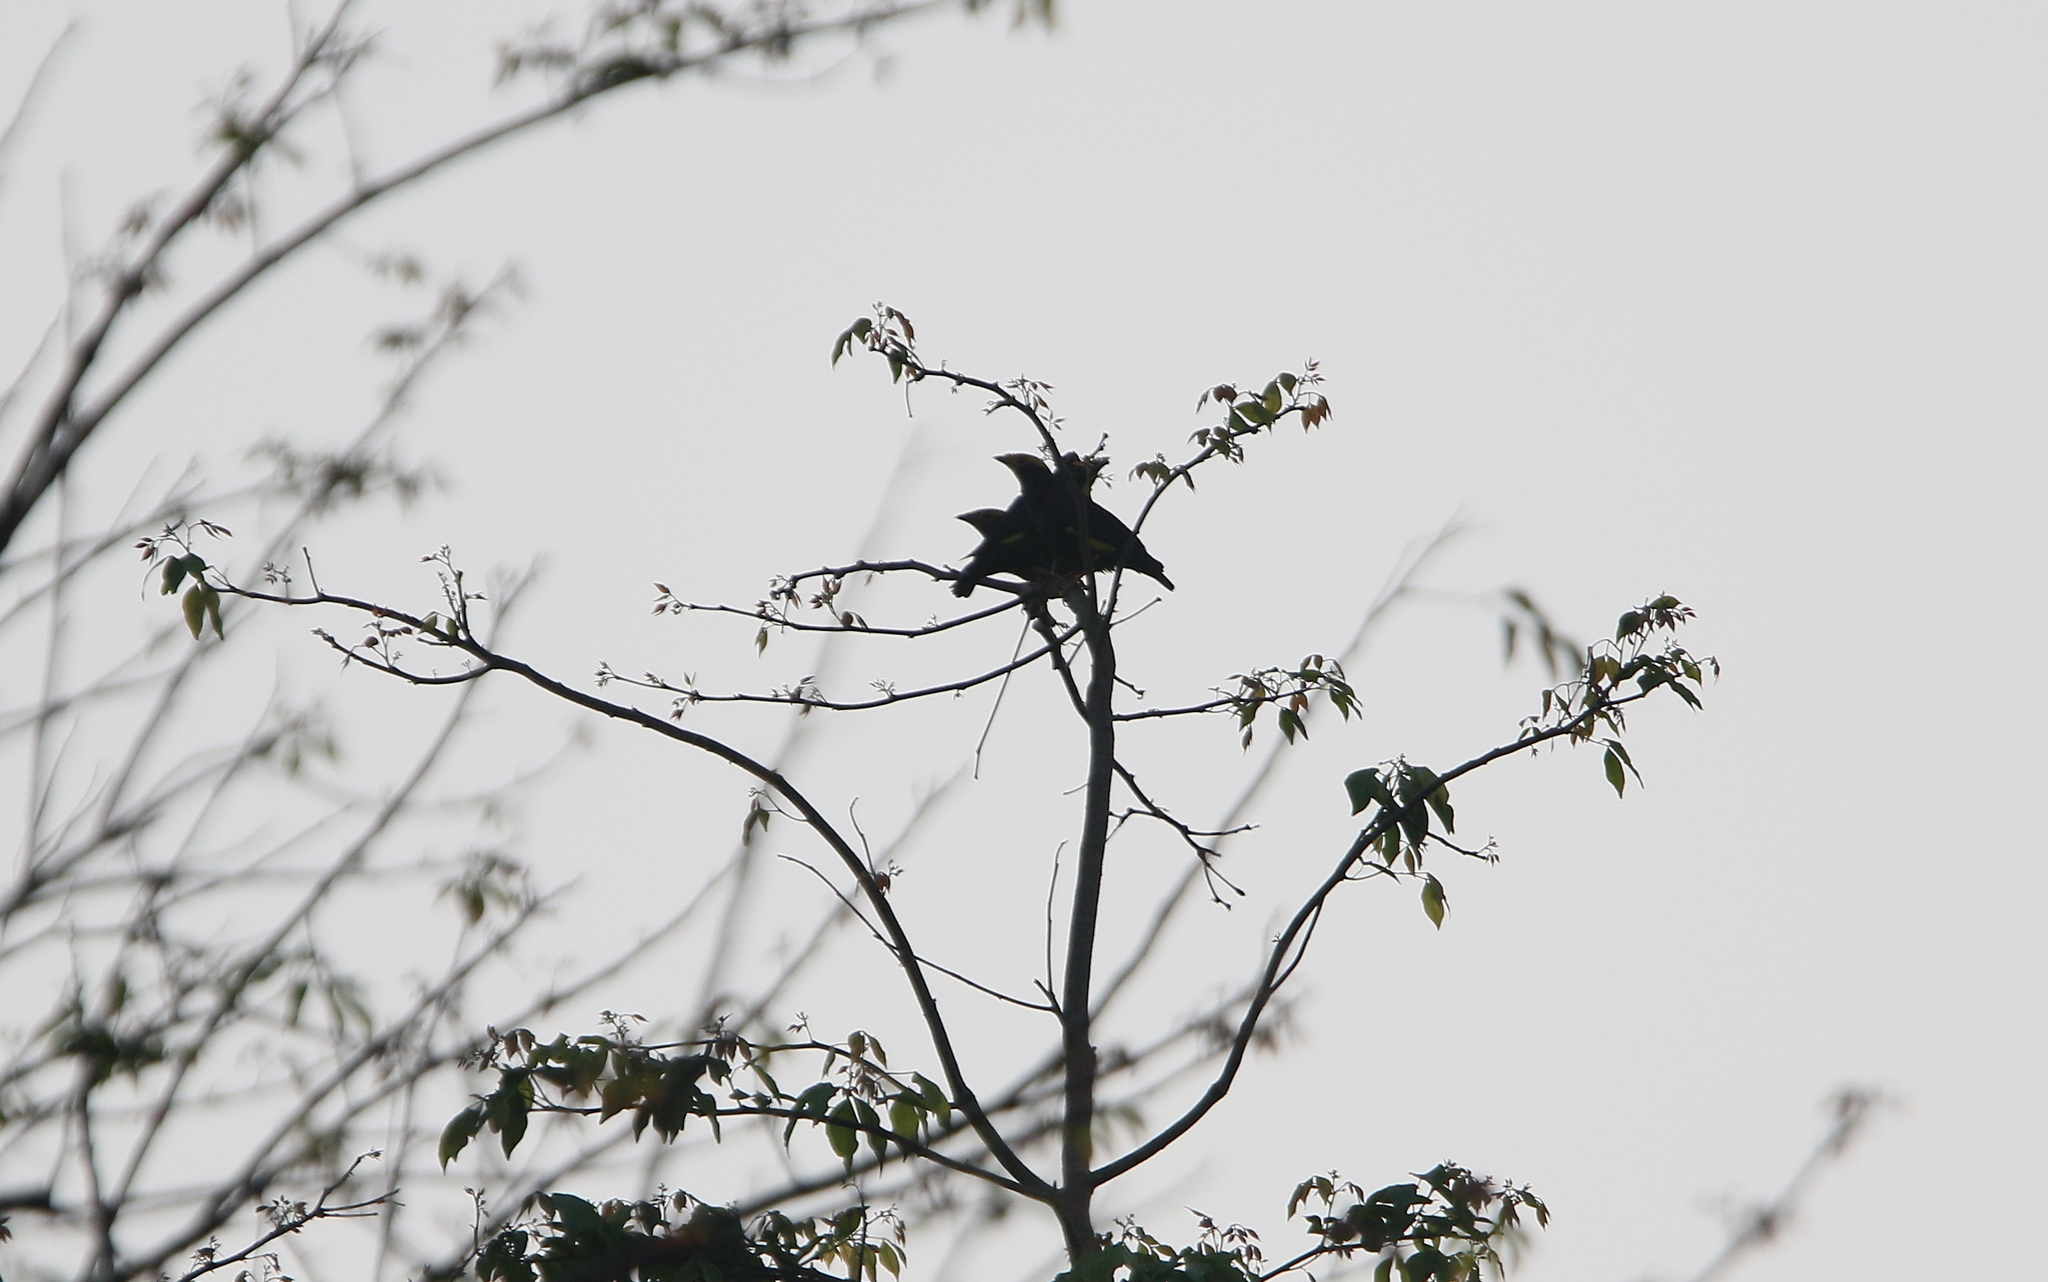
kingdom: Animalia
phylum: Chordata
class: Aves
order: Passeriformes
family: Sturnidae
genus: Ampeliceps
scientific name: Ampeliceps coronatus
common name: Golden-crested myna
